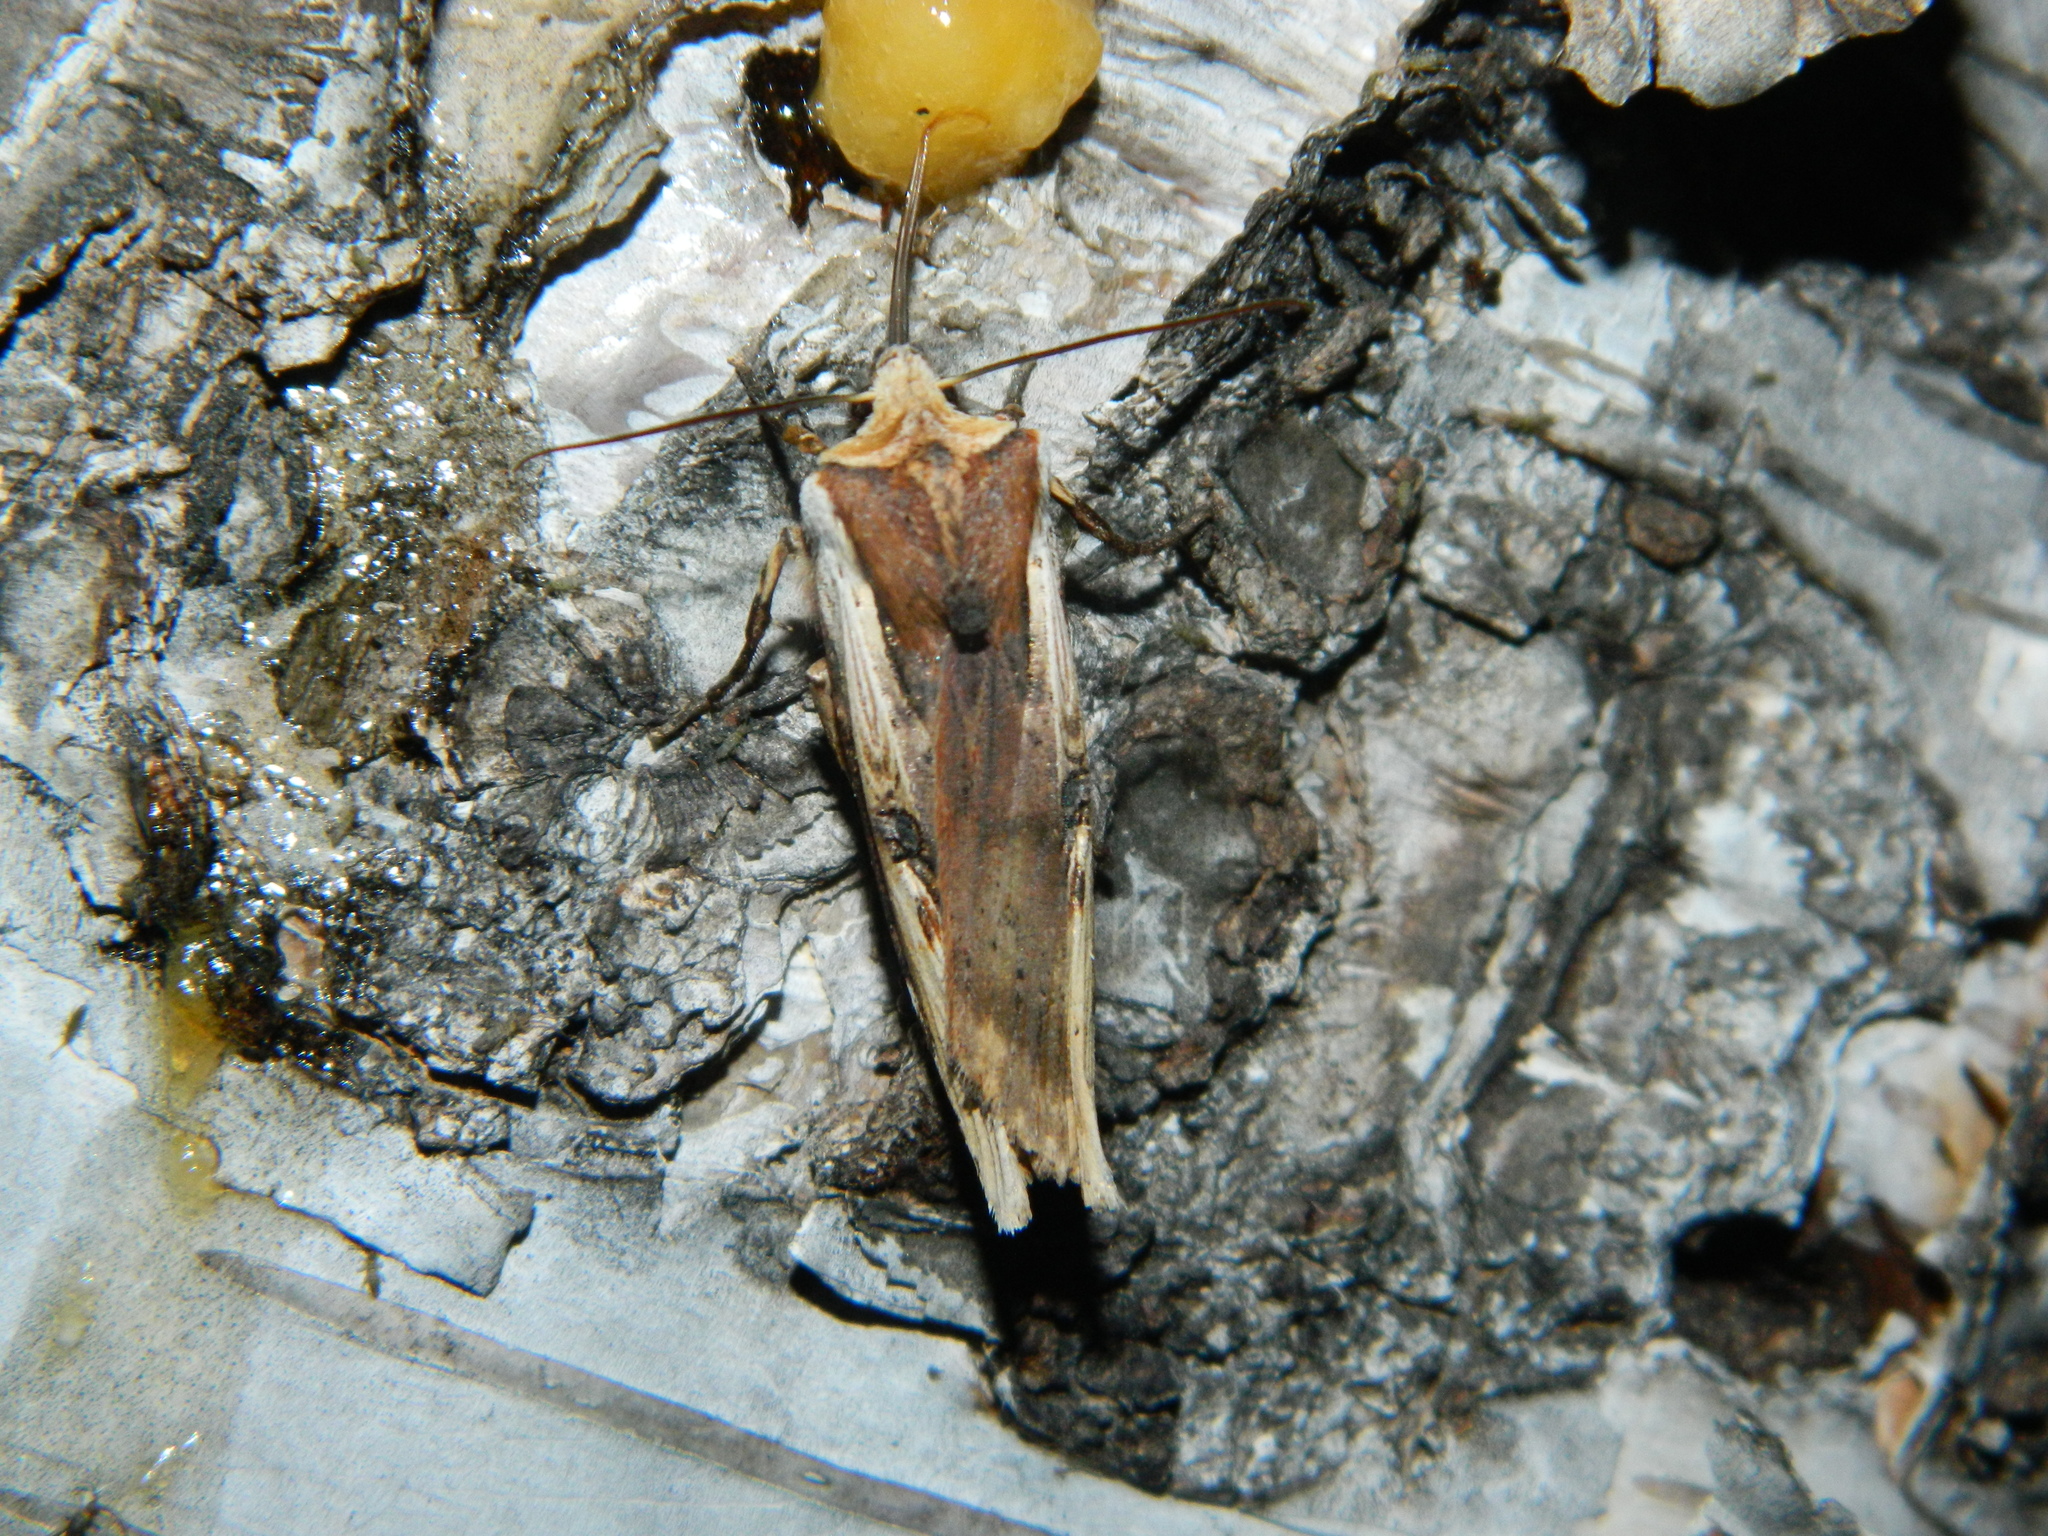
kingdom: Animalia
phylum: Arthropoda
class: Insecta
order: Lepidoptera
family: Noctuidae
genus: Xylena
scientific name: Xylena curvimacula
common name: Dot-and-dash swordgrass moth
